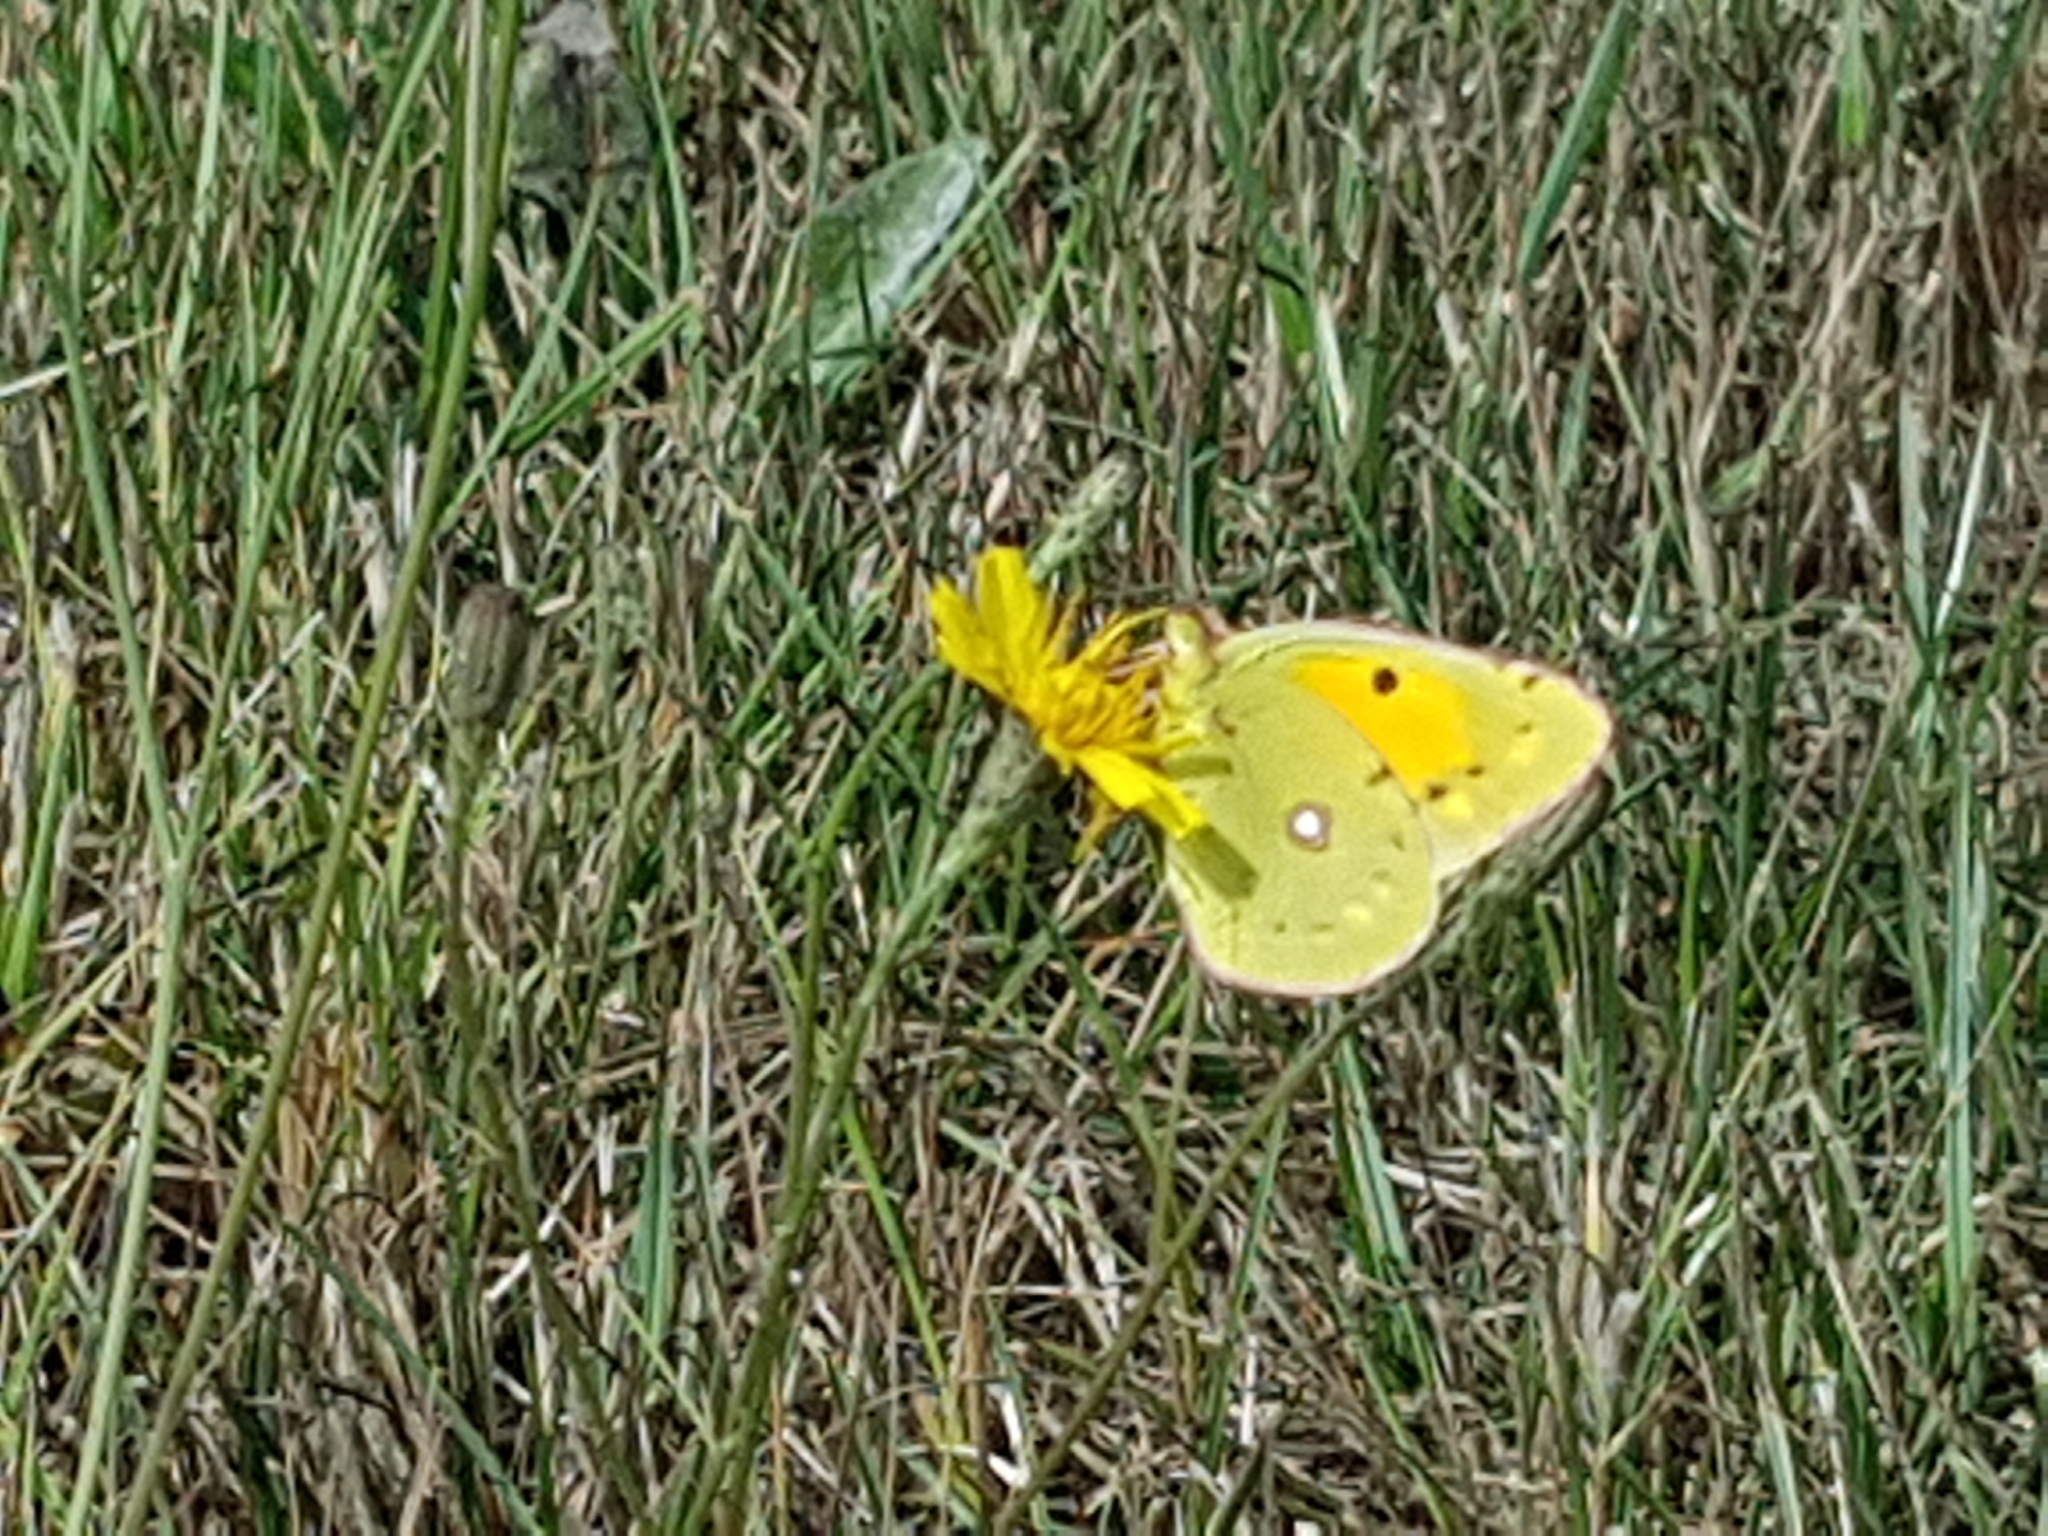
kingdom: Animalia
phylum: Arthropoda
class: Insecta
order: Lepidoptera
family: Pieridae
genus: Colias
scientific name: Colias croceus
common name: Clouded yellow
